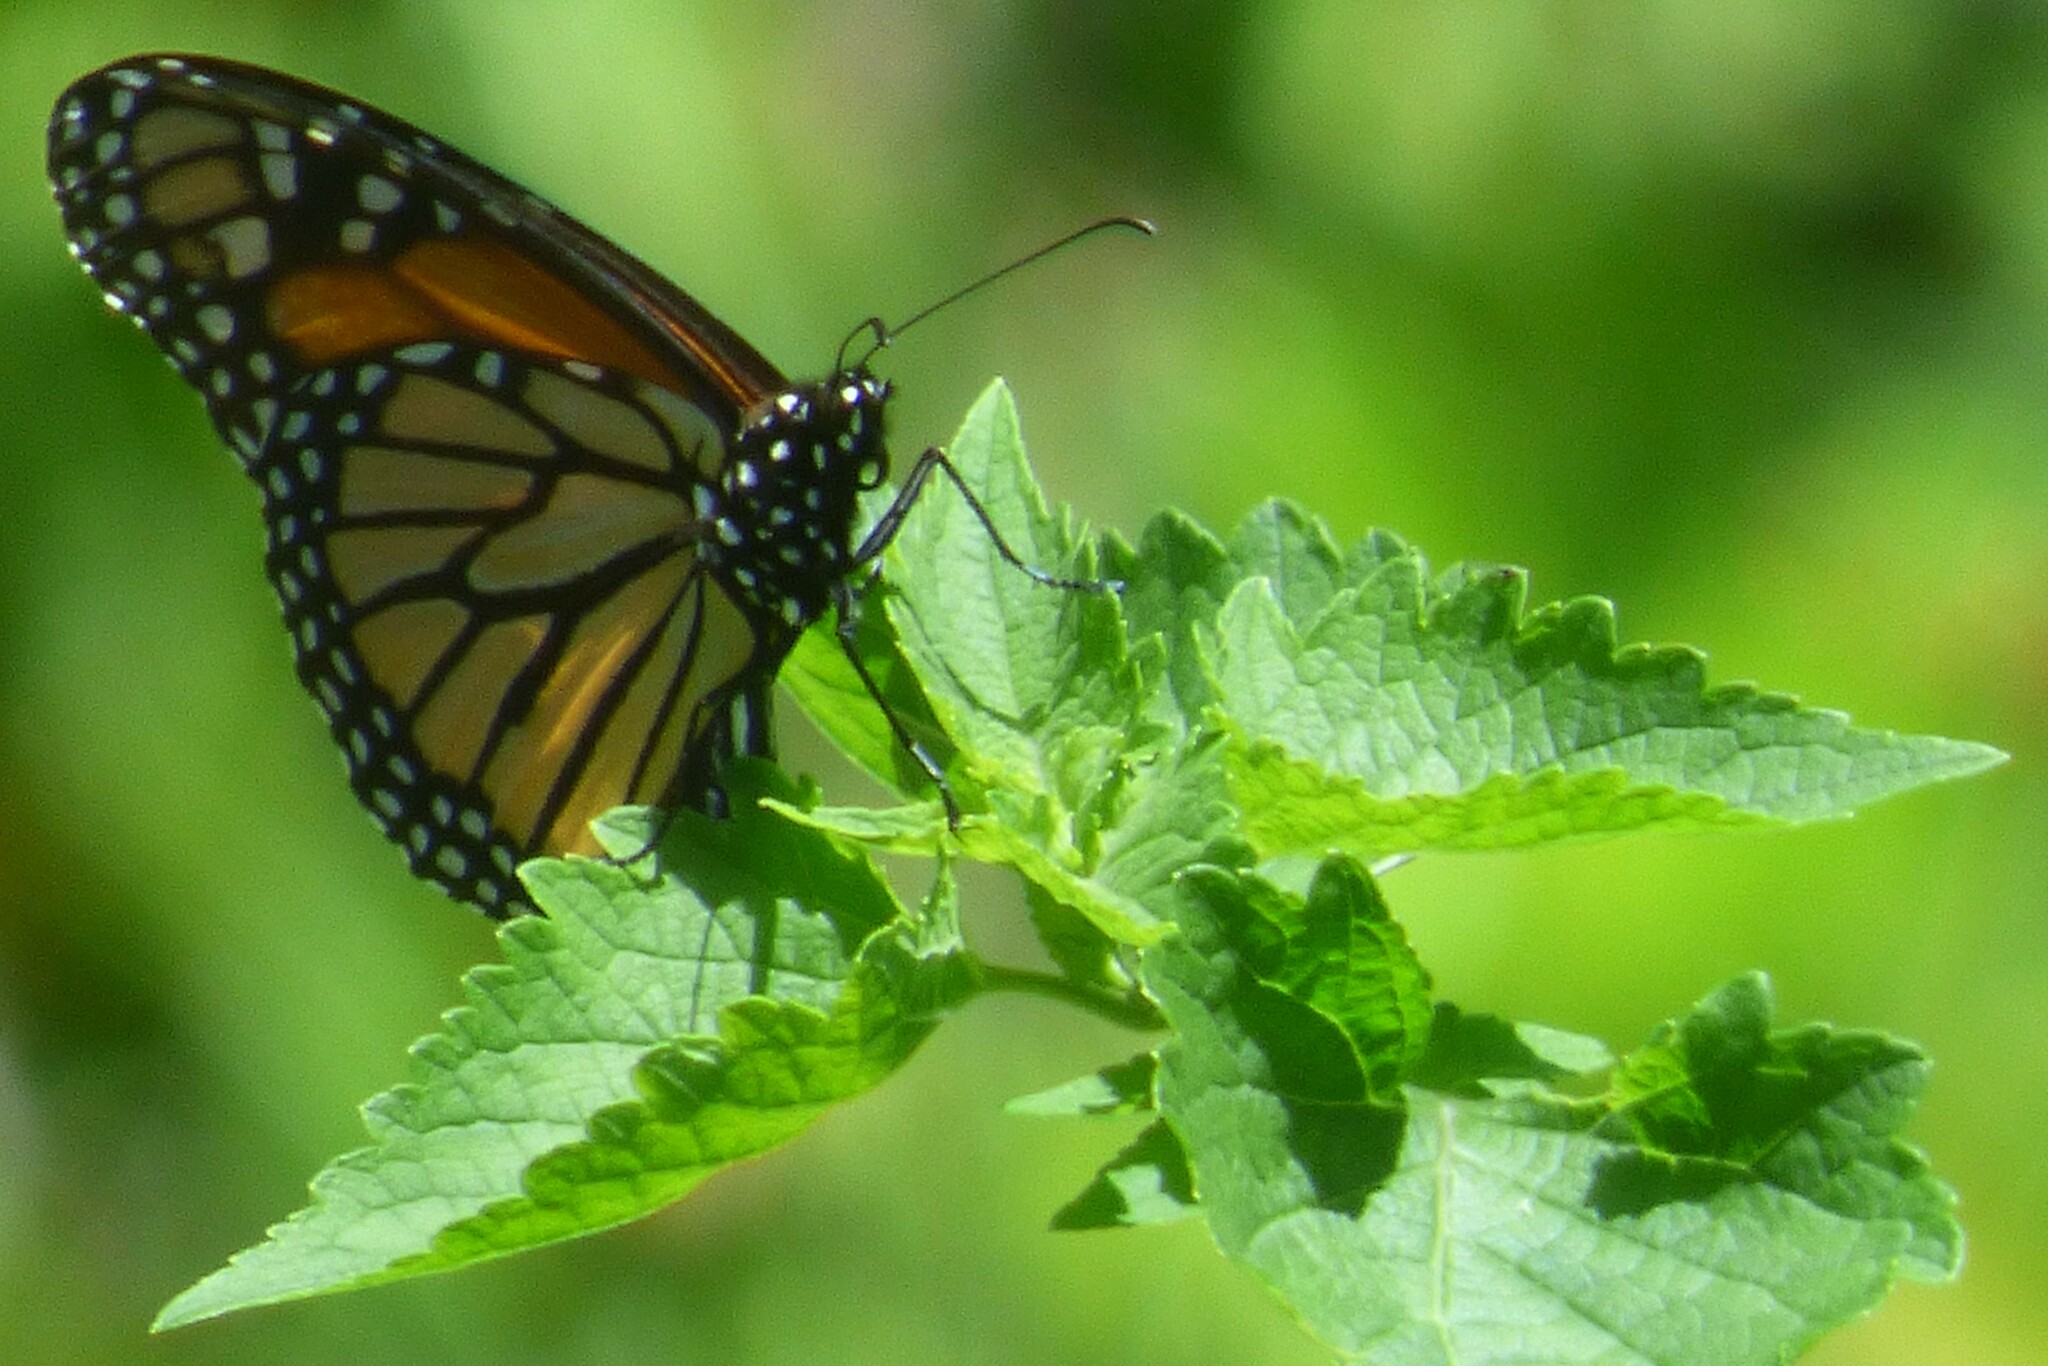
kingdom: Animalia
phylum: Arthropoda
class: Insecta
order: Lepidoptera
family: Nymphalidae
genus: Danaus
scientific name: Danaus plexippus
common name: Monarch
